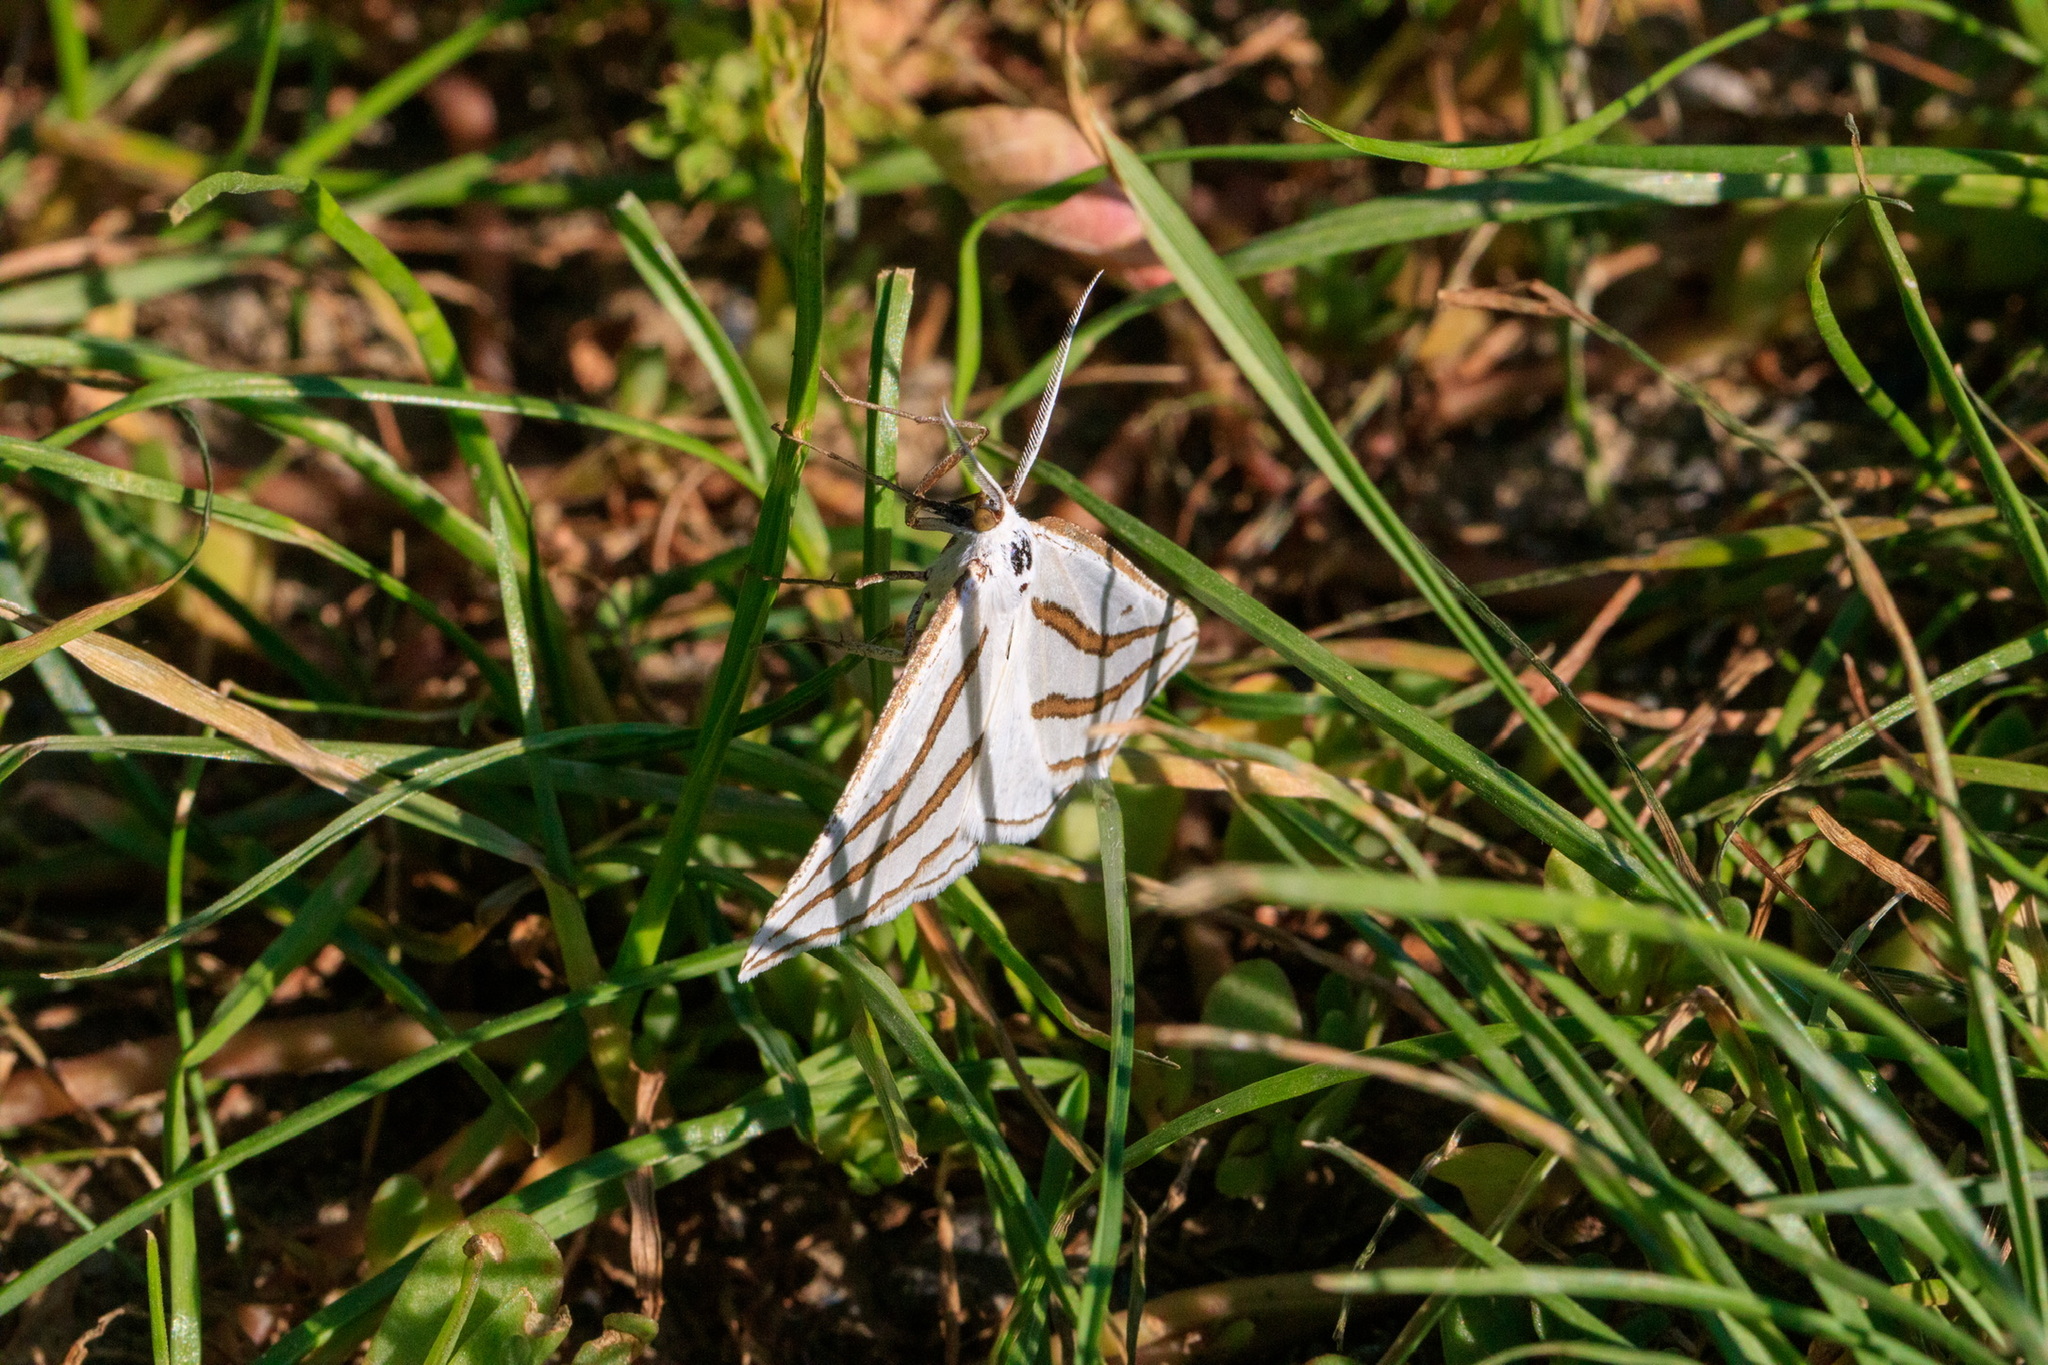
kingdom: Animalia
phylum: Arthropoda
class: Insecta
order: Lepidoptera
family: Geometridae
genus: Megaspilates
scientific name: Megaspilates mundataria
